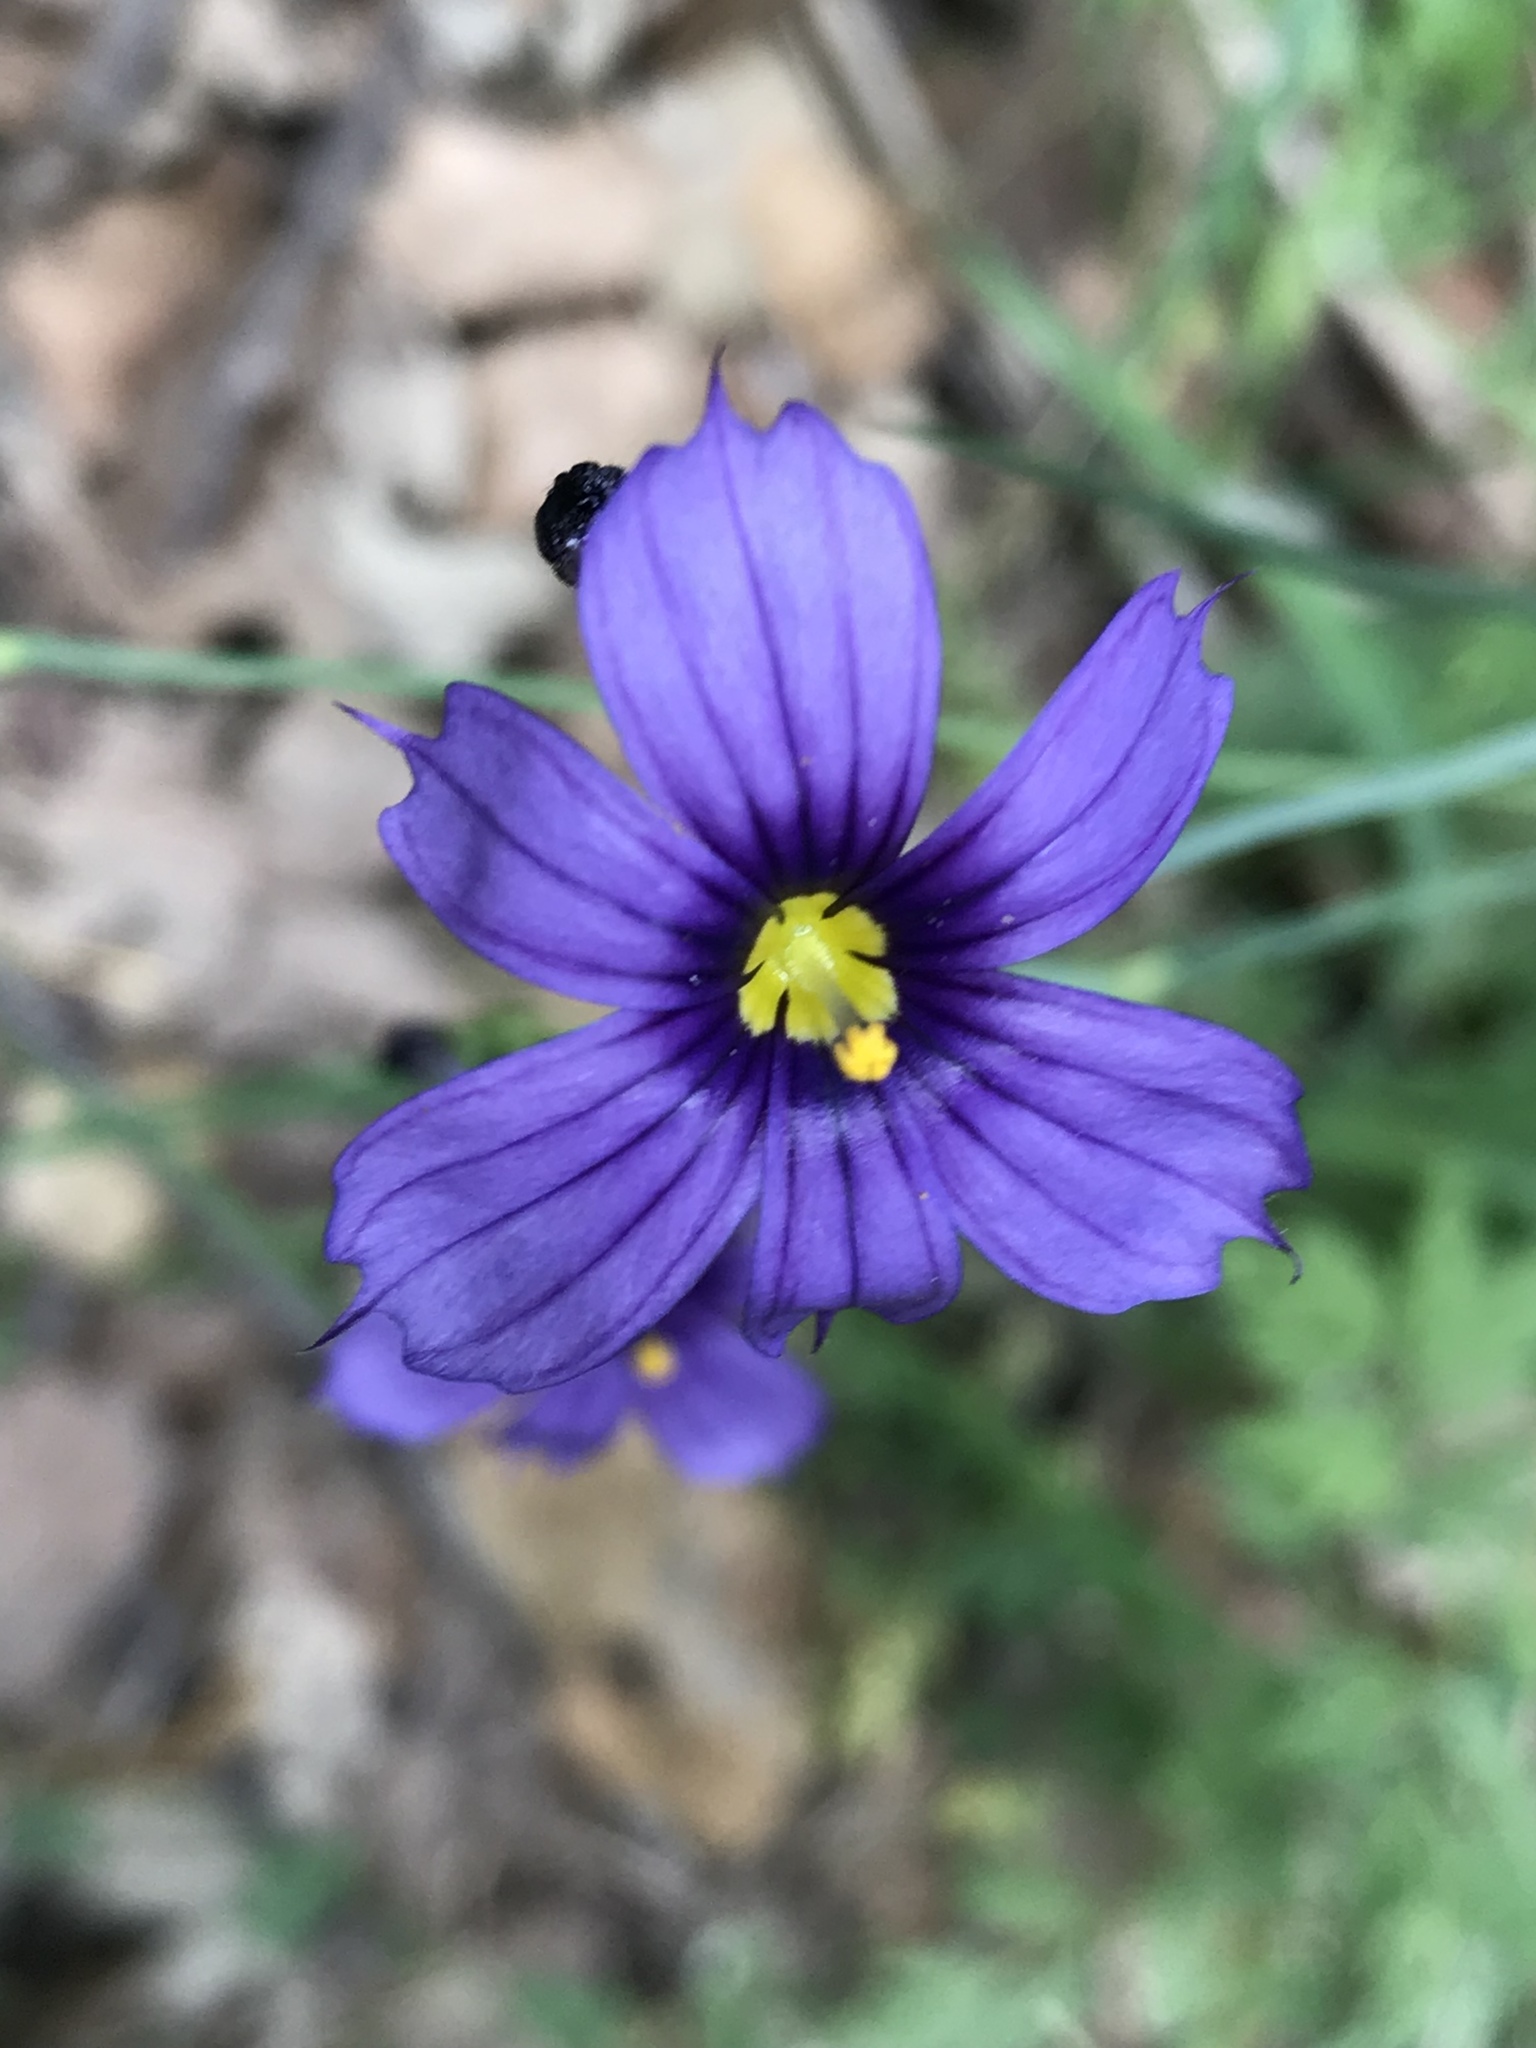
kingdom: Plantae
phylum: Tracheophyta
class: Liliopsida
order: Asparagales
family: Iridaceae
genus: Sisyrinchium
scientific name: Sisyrinchium bellum
